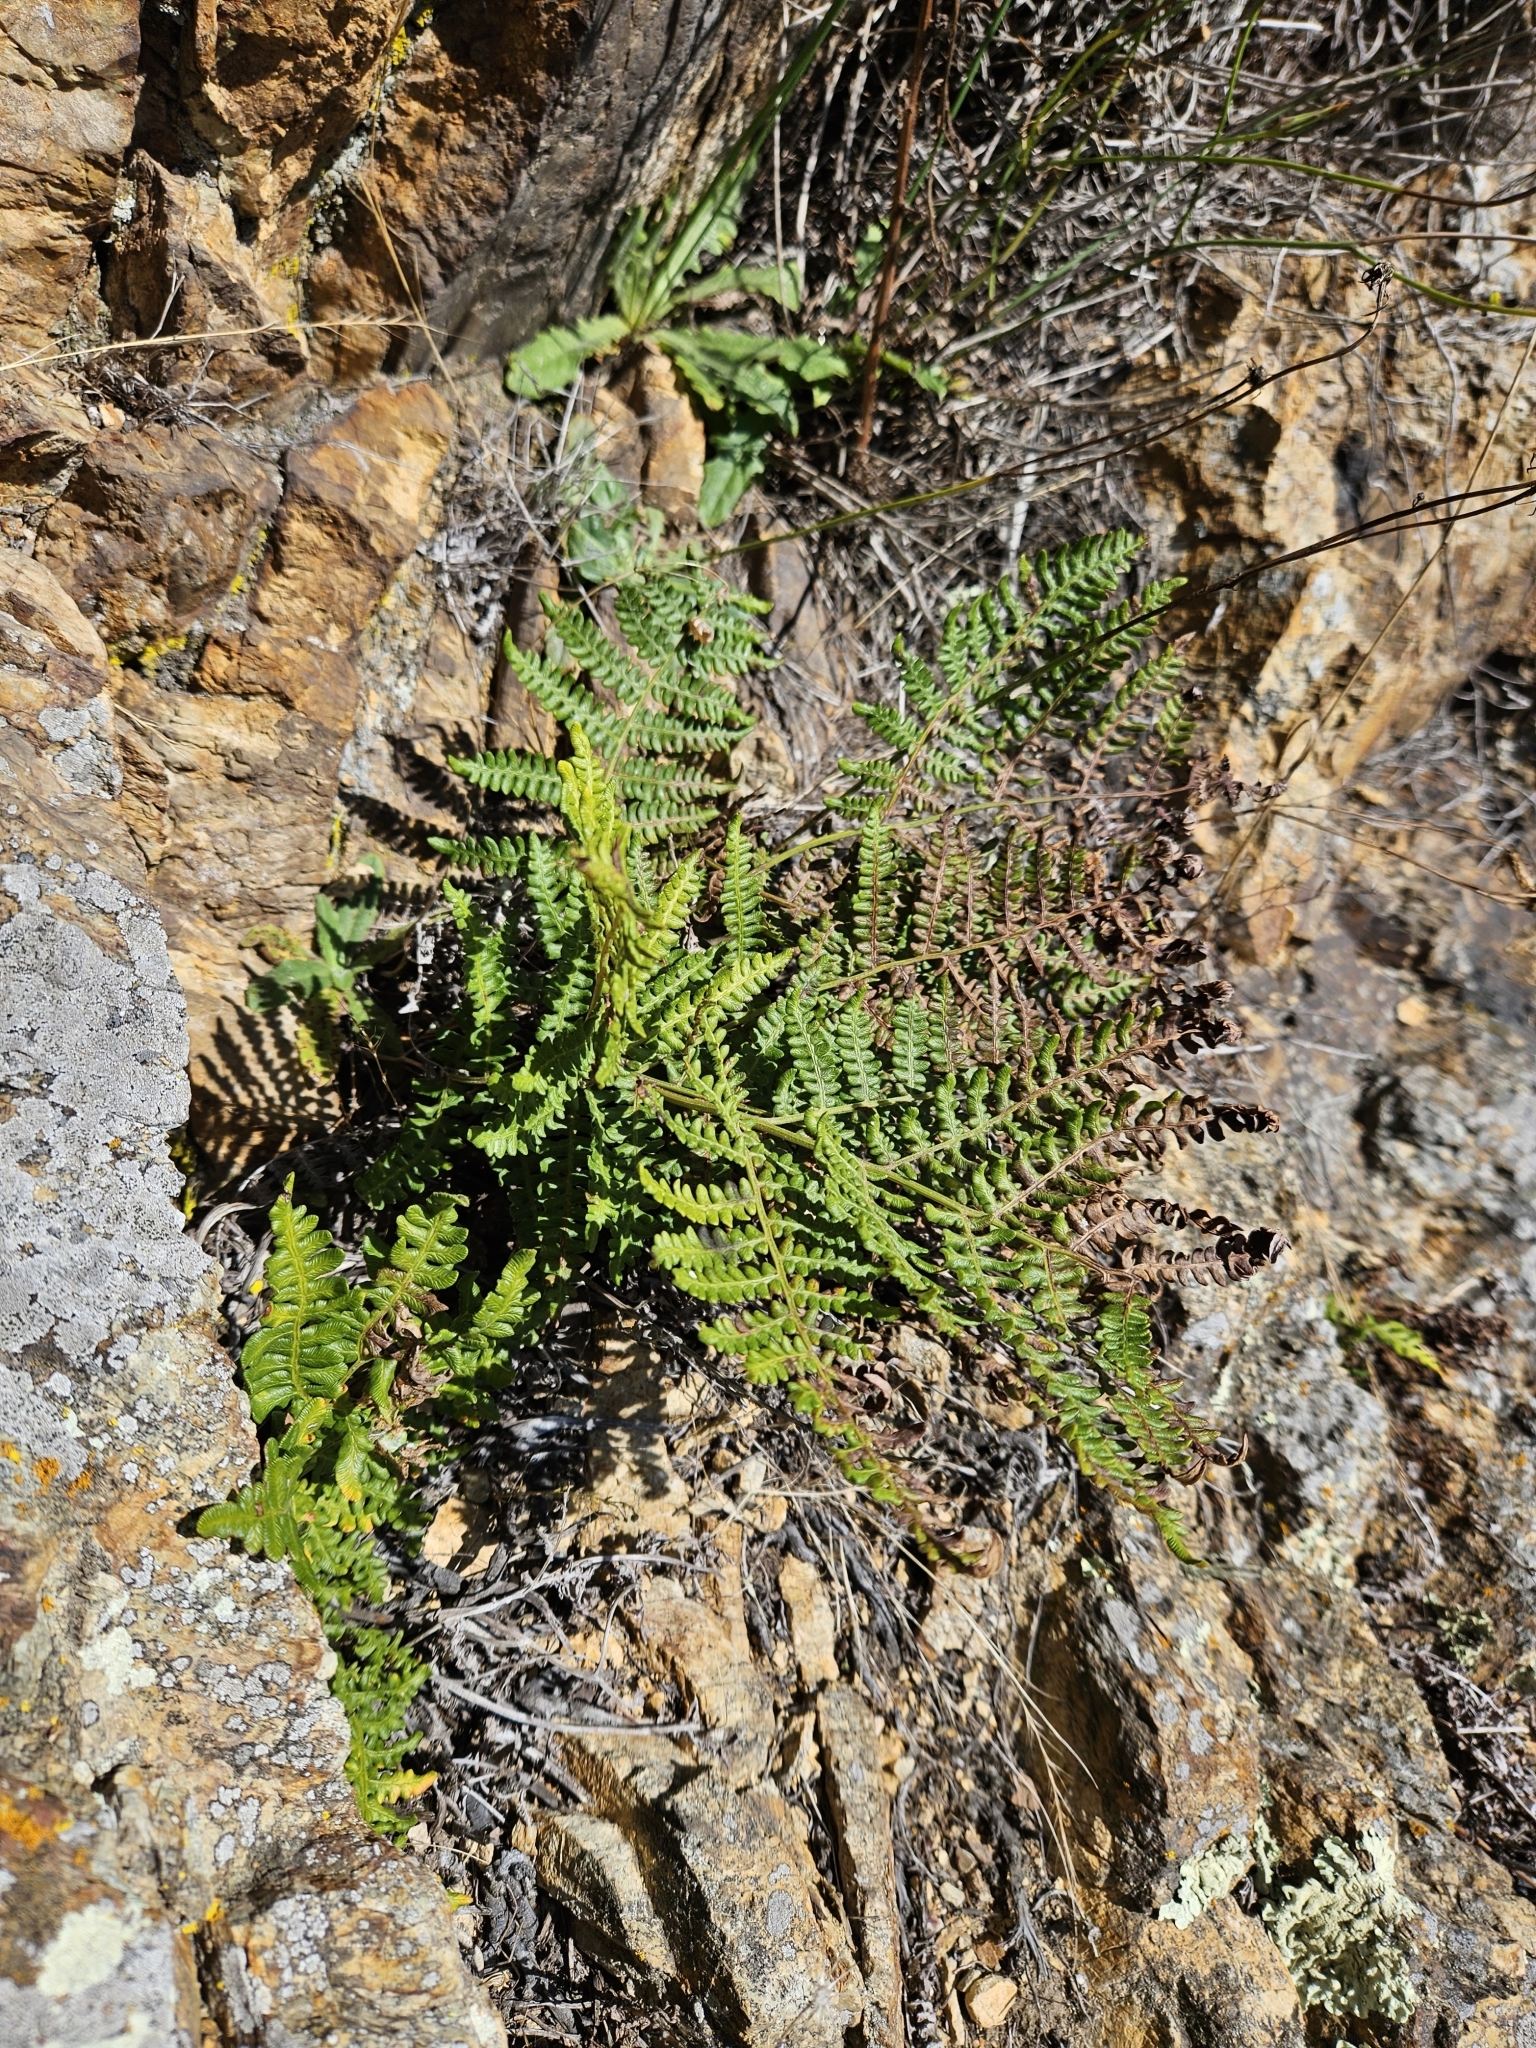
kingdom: Plantae
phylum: Tracheophyta
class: Polypodiopsida
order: Polypodiales
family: Dennstaedtiaceae
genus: Pteridium
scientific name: Pteridium aquilinum
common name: Bracken
